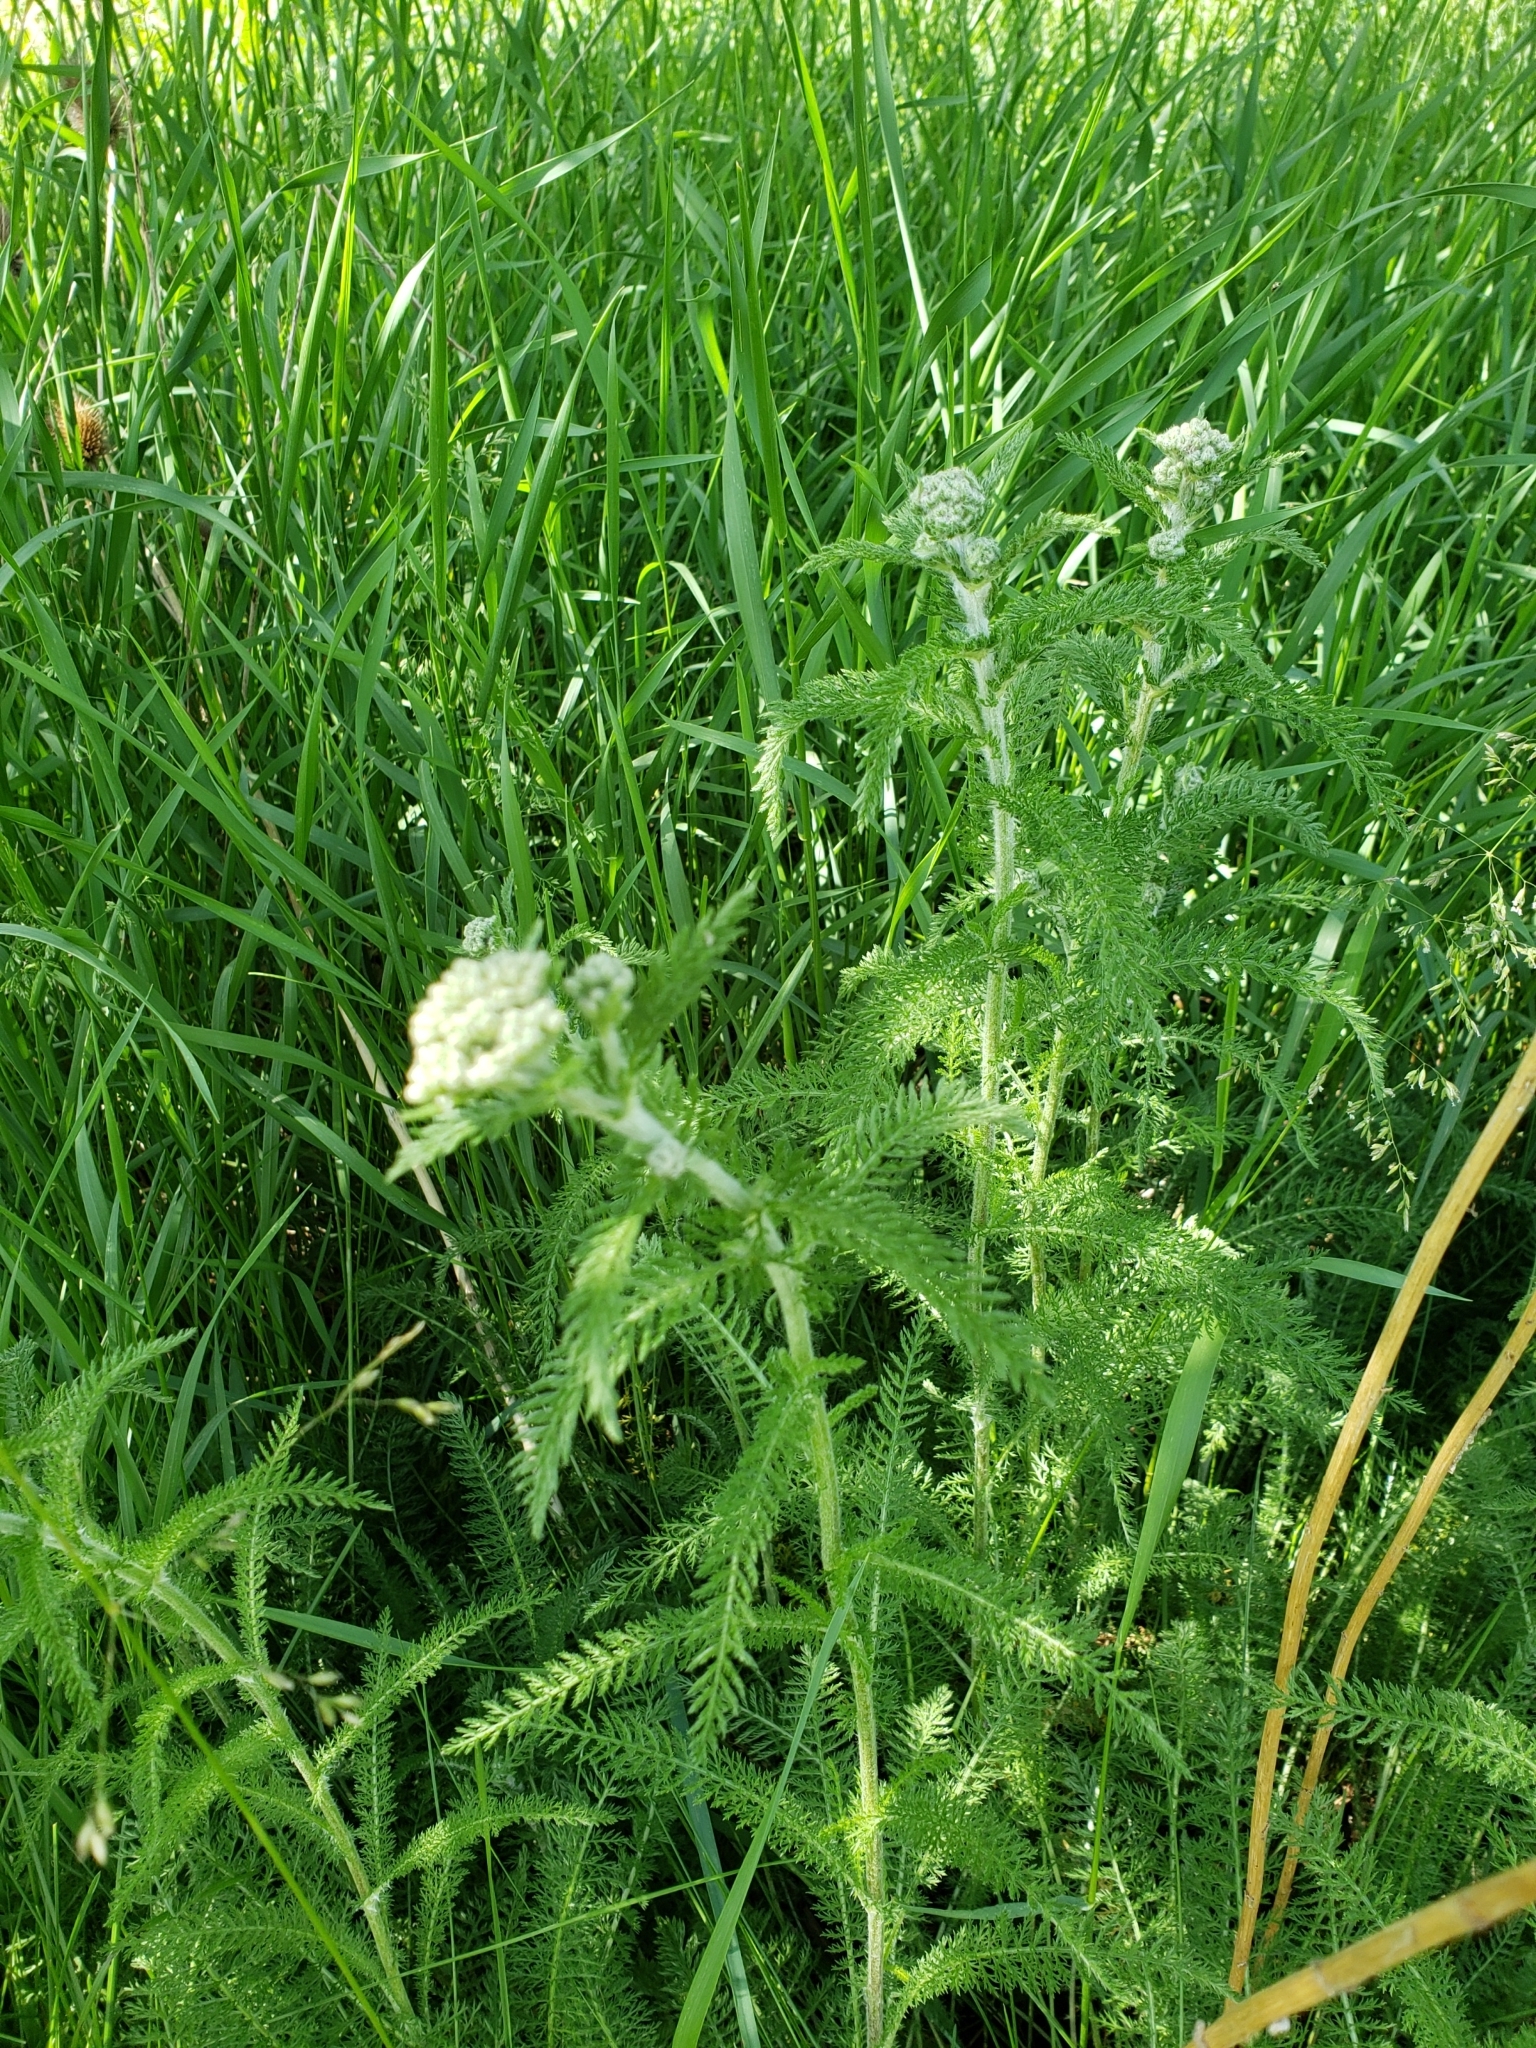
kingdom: Plantae
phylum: Tracheophyta
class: Magnoliopsida
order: Asterales
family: Asteraceae
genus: Achillea
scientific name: Achillea millefolium
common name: Yarrow
